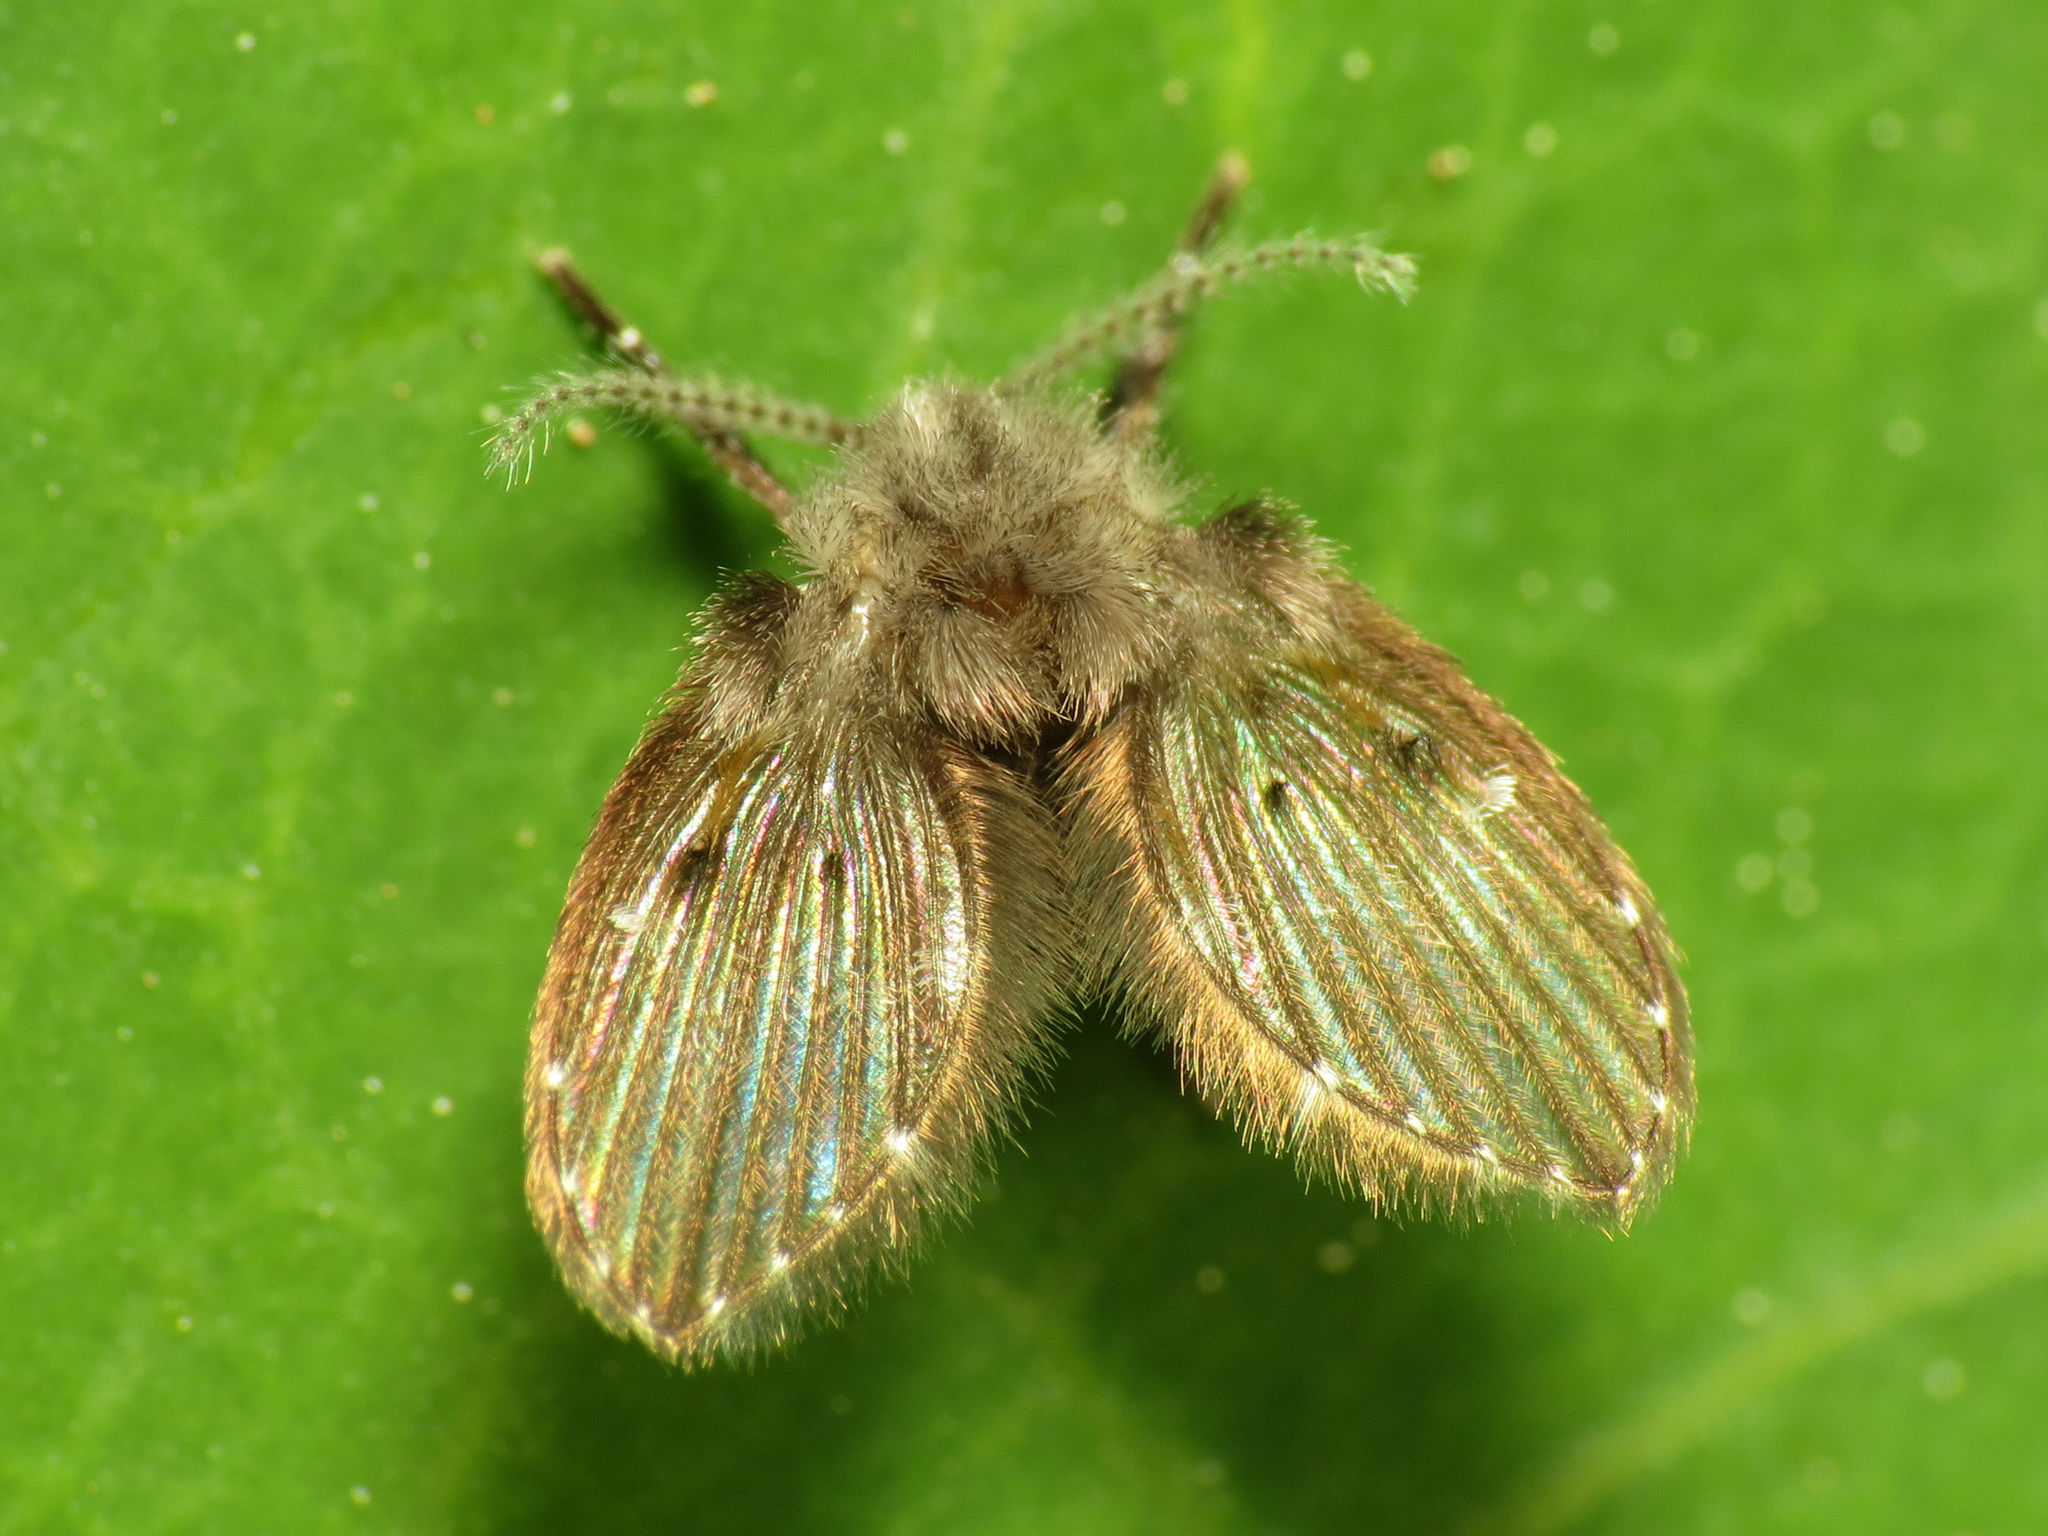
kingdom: Animalia
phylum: Arthropoda
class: Insecta
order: Diptera
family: Psychodidae
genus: Clogmia
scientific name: Clogmia albipunctatus
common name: White-spotted moth fly
